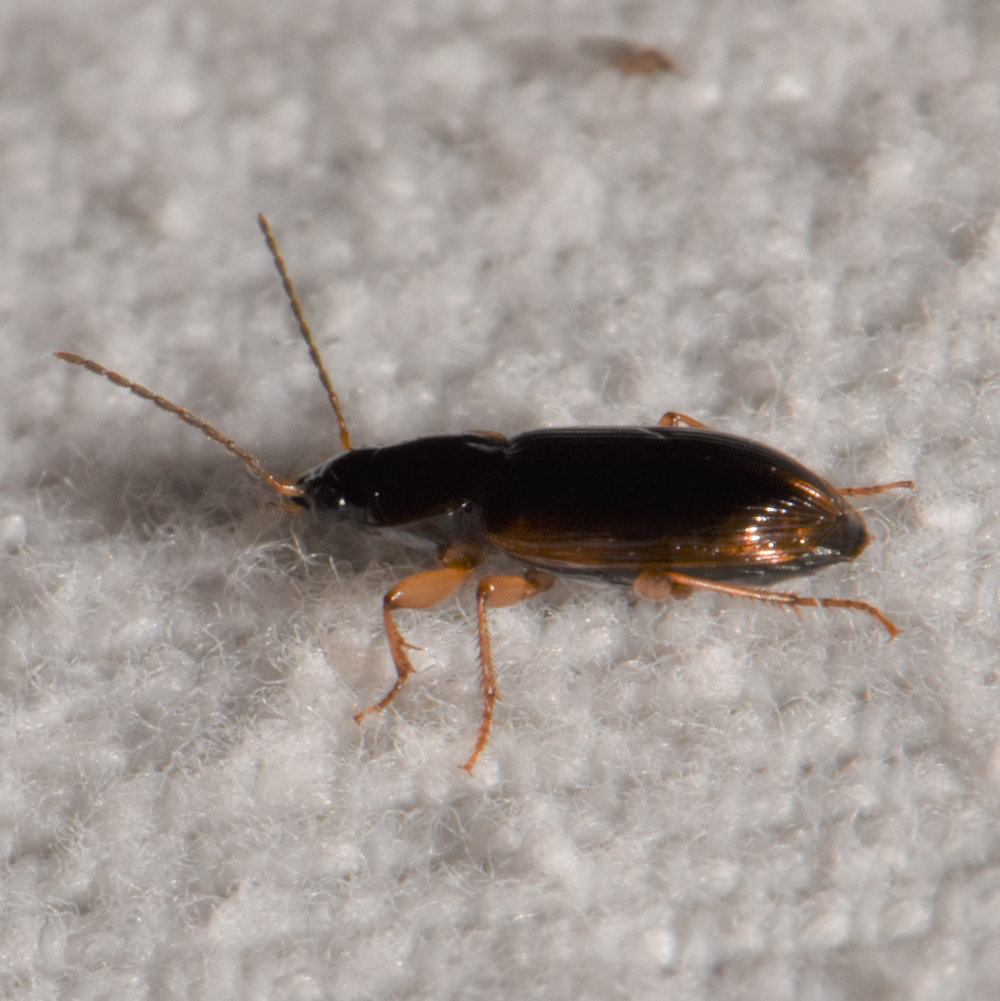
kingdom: Animalia
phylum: Arthropoda
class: Insecta
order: Coleoptera
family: Carabidae
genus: Stenolophus
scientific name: Stenolophus ochropezus
